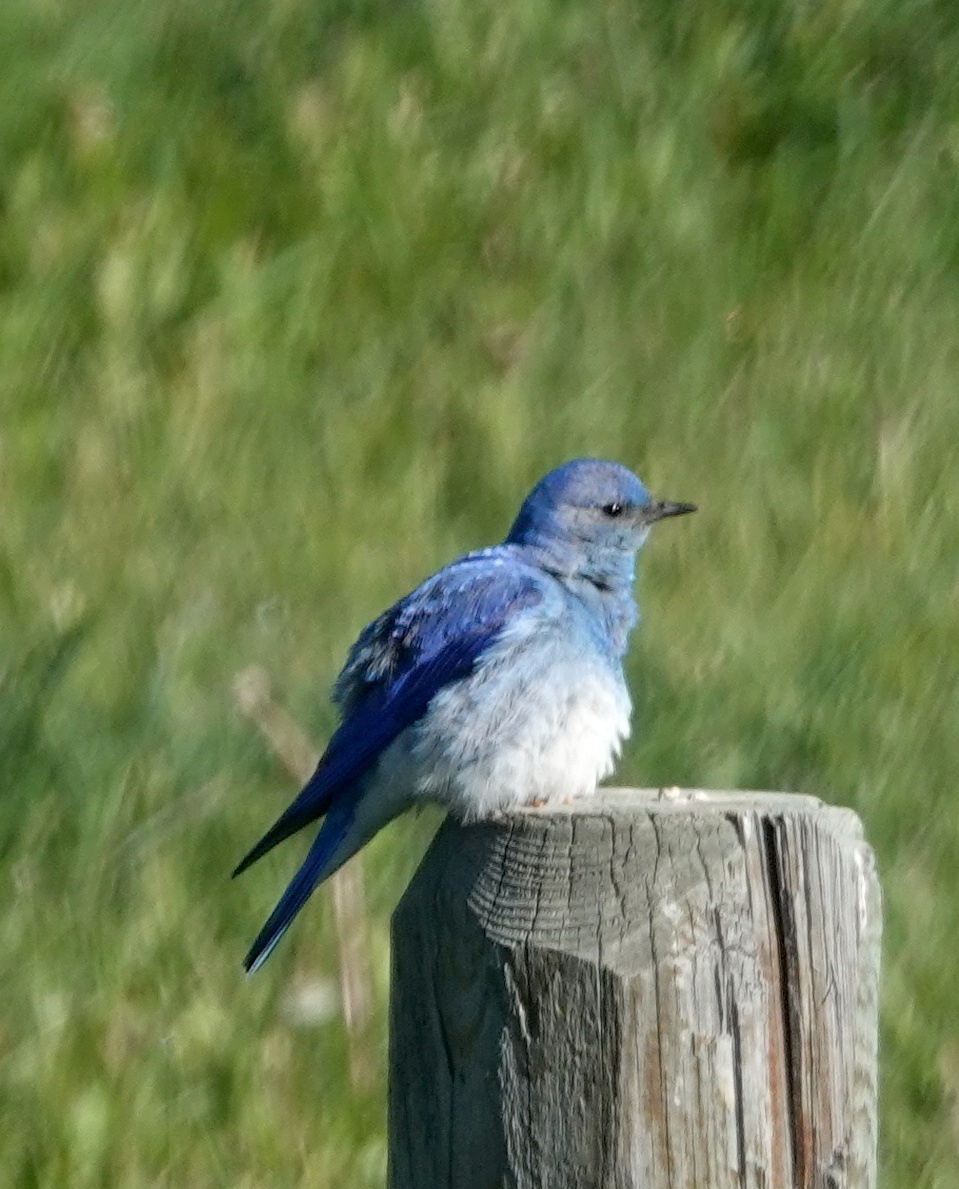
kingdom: Animalia
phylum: Chordata
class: Aves
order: Passeriformes
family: Turdidae
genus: Sialia
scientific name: Sialia currucoides
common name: Mountain bluebird
